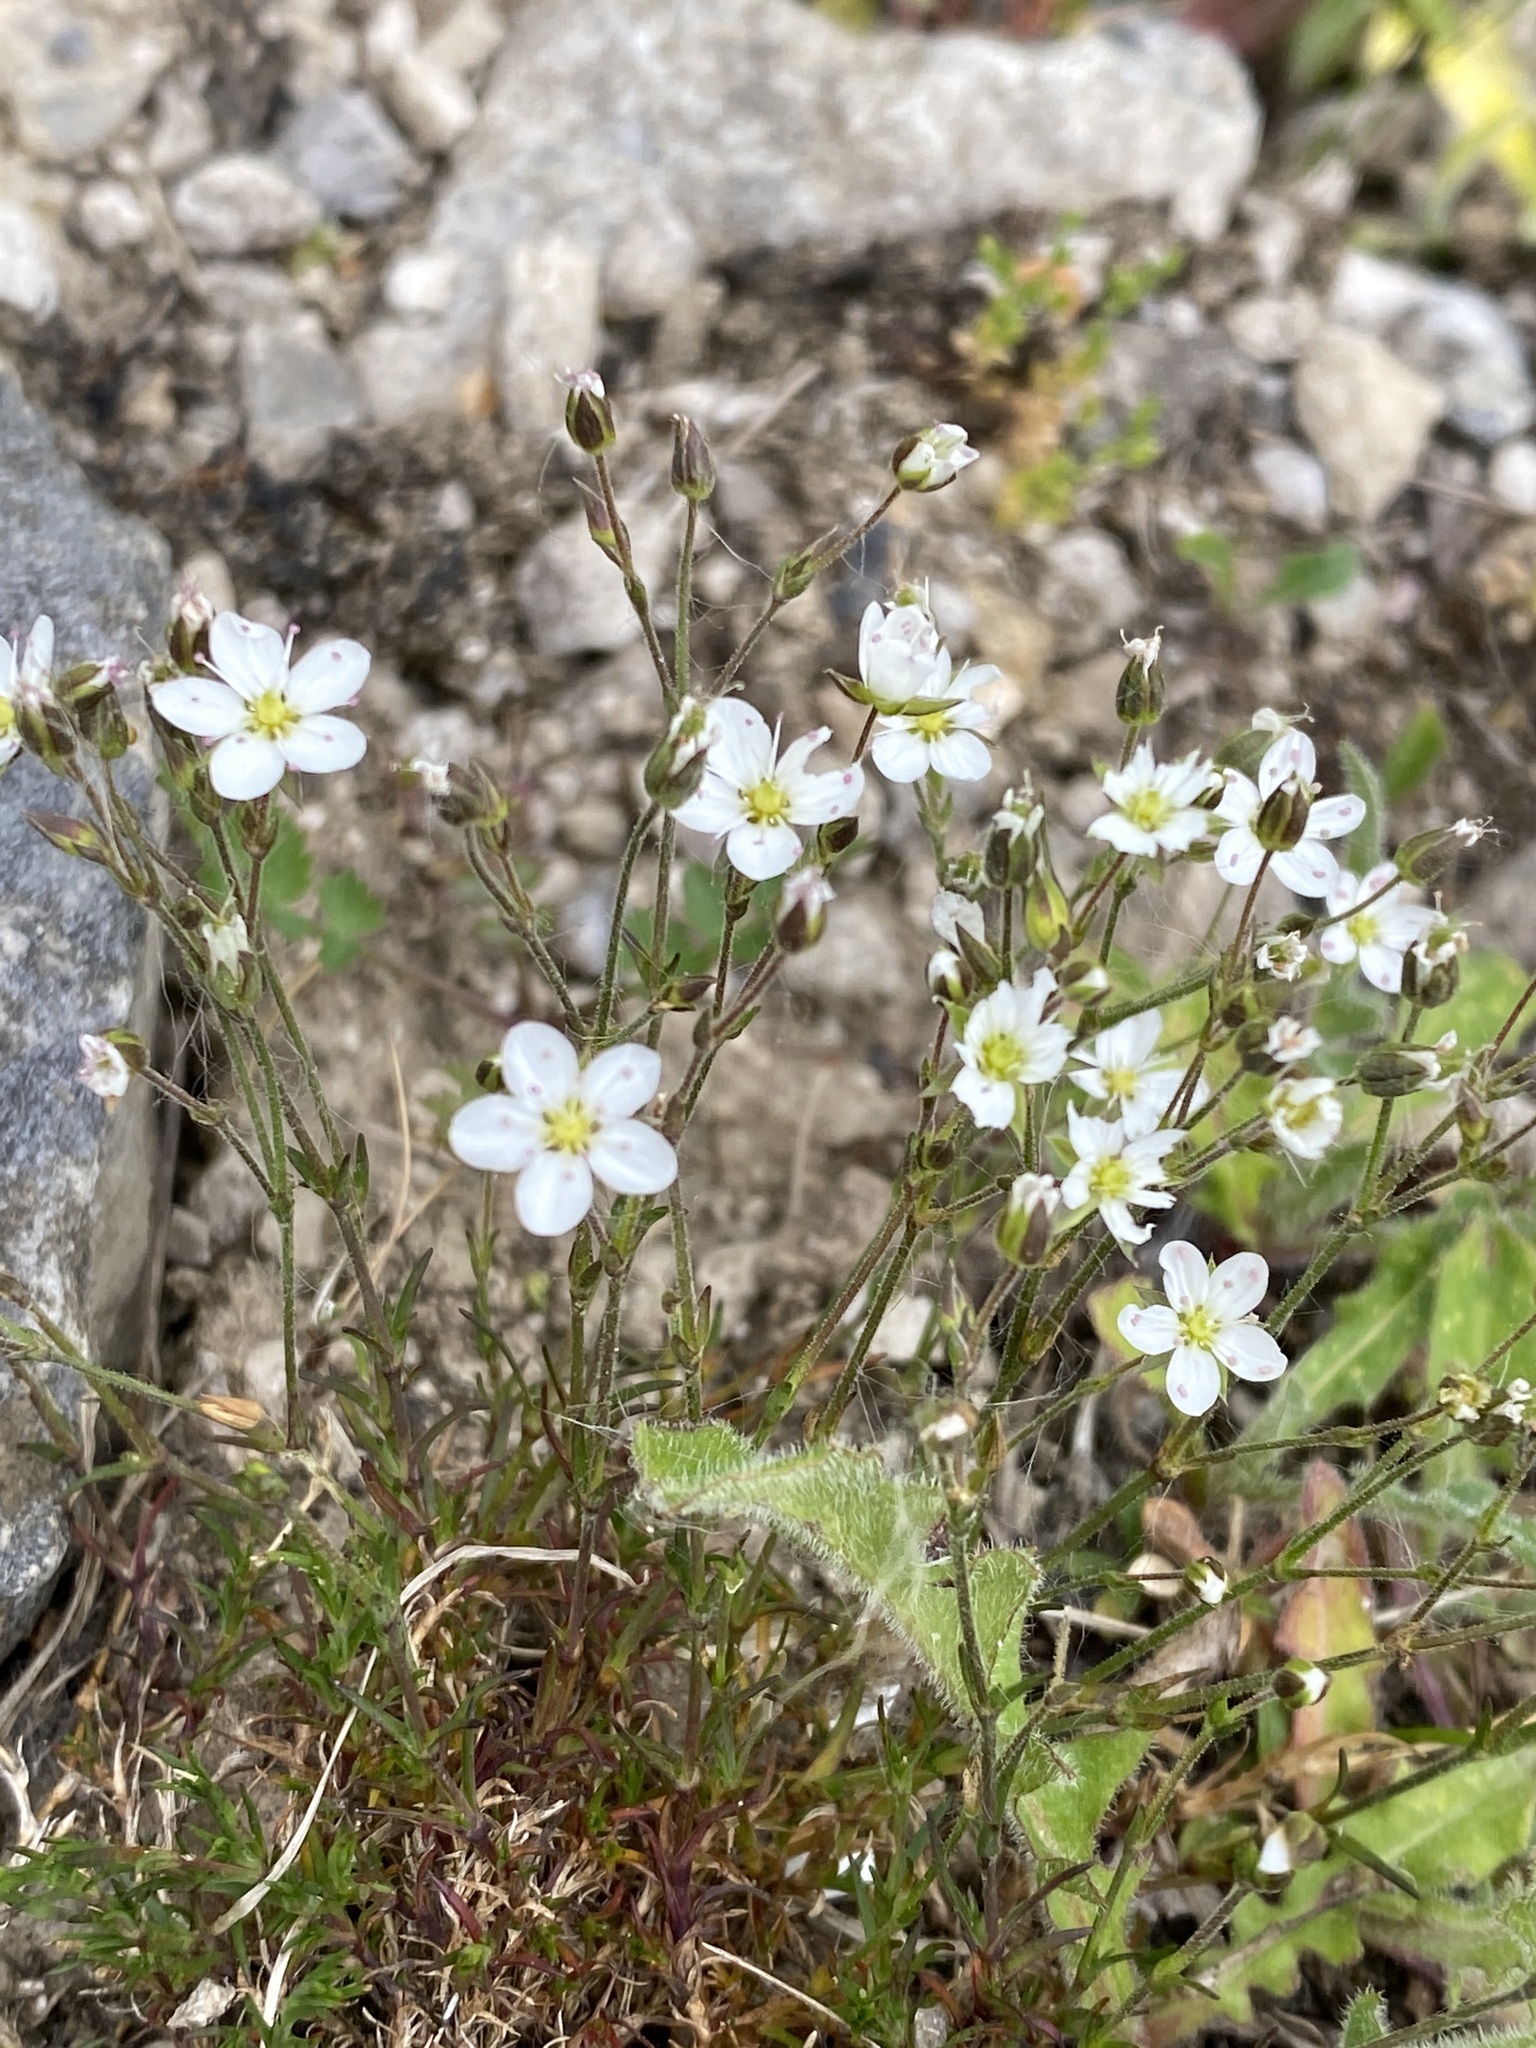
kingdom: Plantae
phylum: Tracheophyta
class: Magnoliopsida
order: Caryophyllales
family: Caryophyllaceae
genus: Sagina
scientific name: Sagina nodosa
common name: Knotted pearlwort
